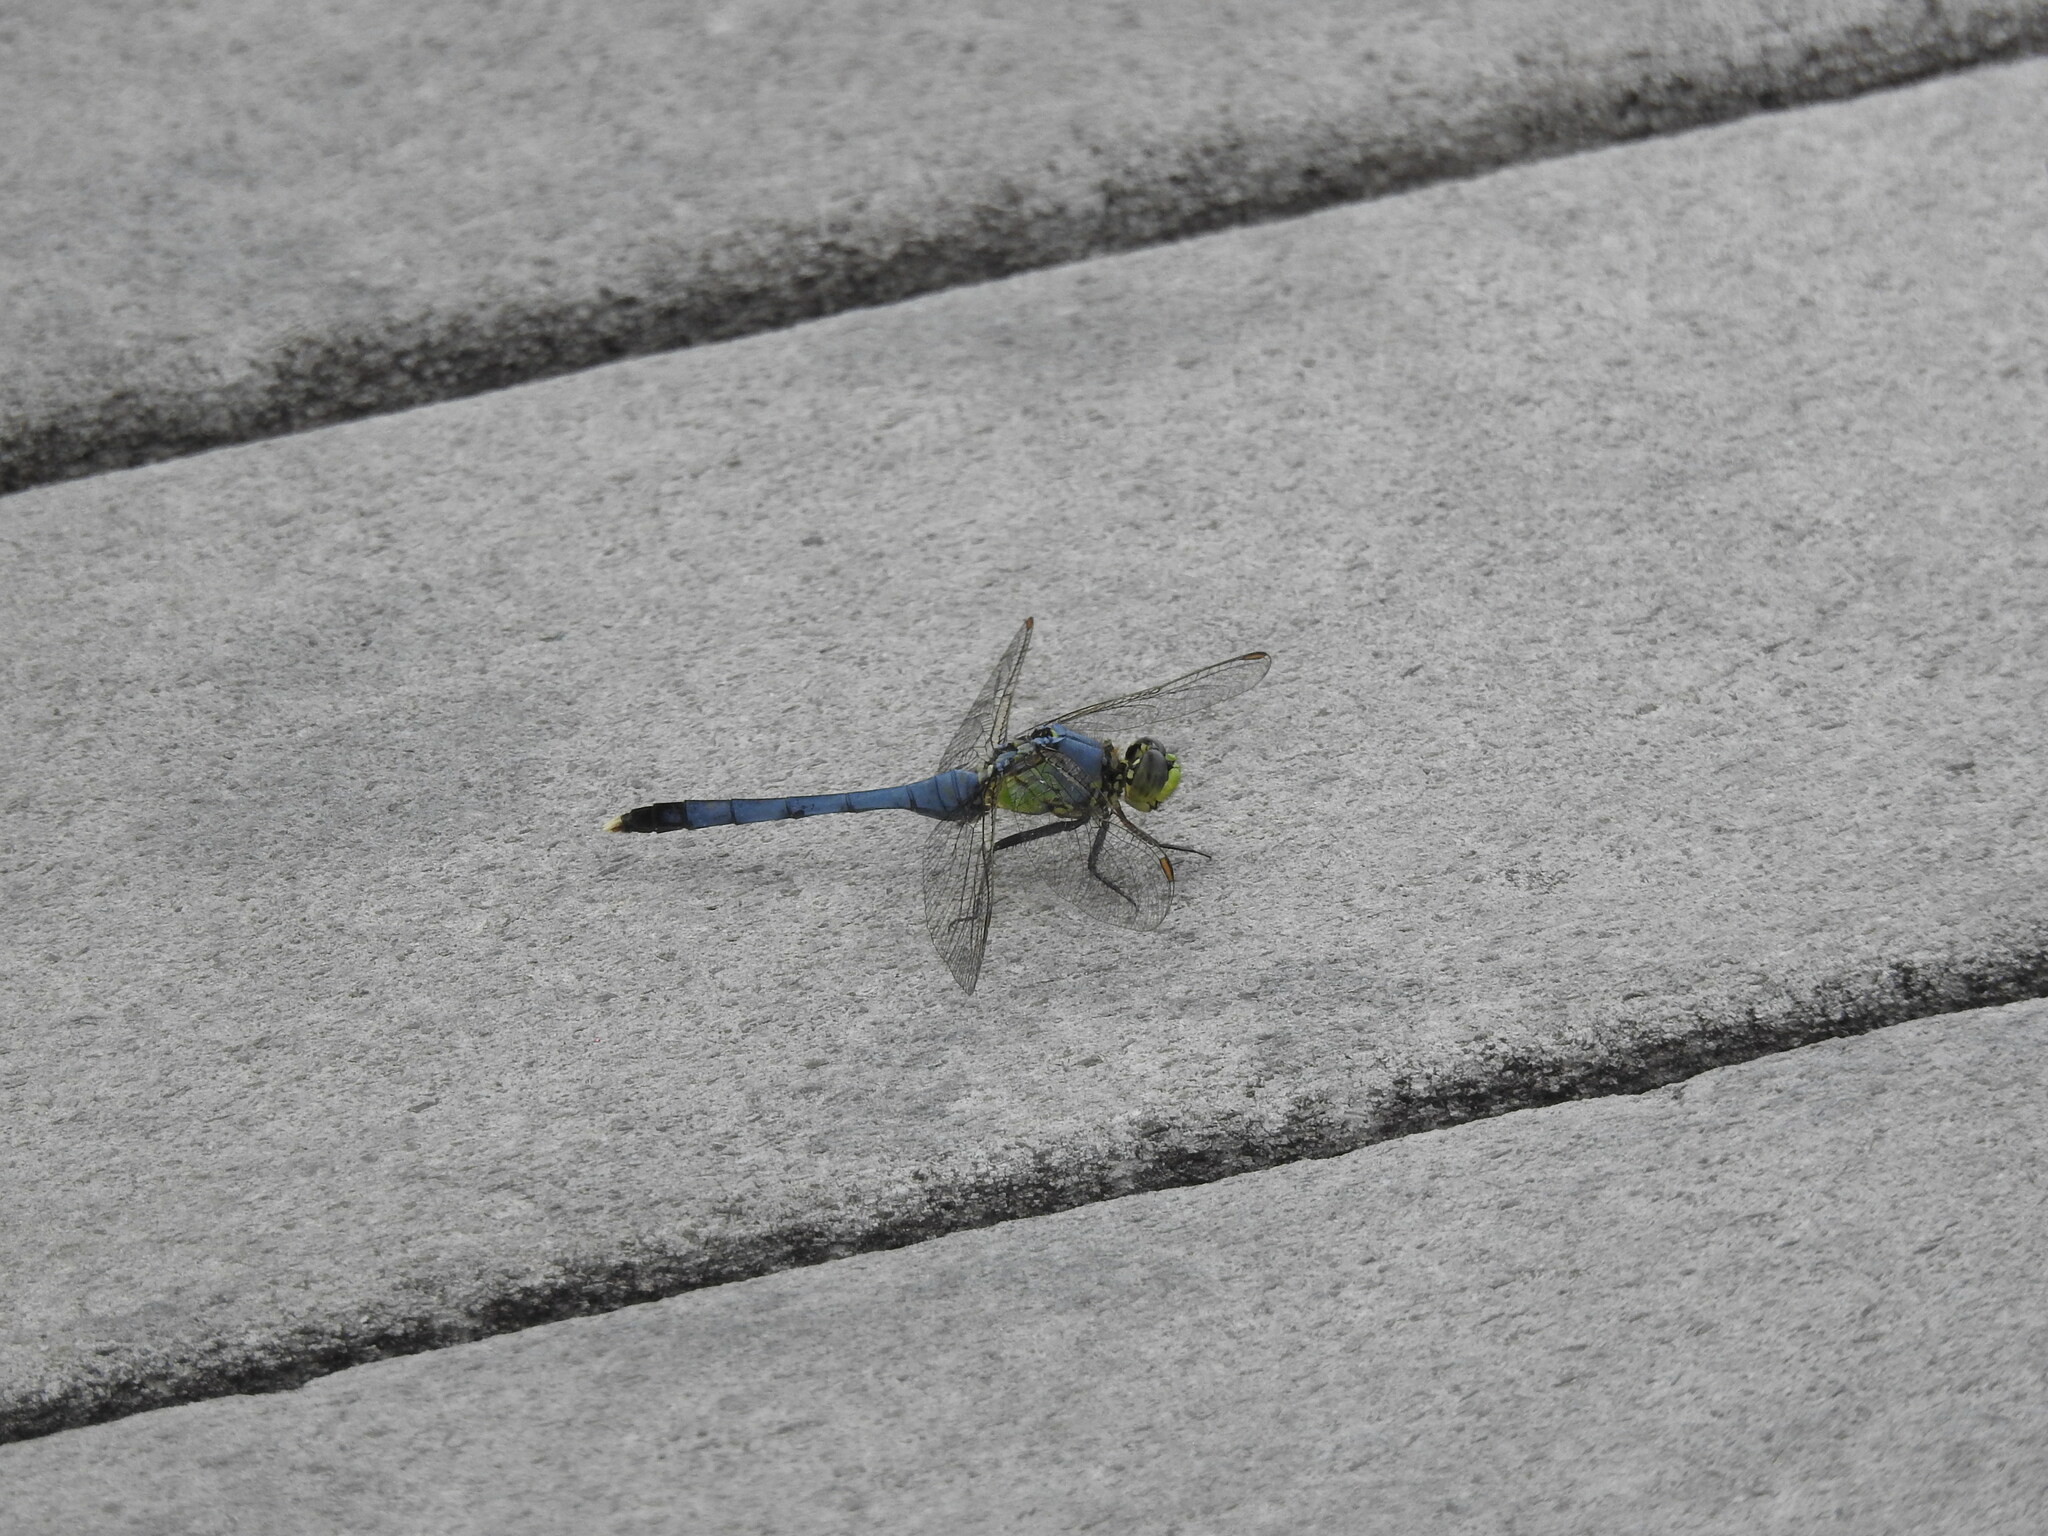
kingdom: Animalia
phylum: Arthropoda
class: Insecta
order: Odonata
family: Libellulidae
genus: Erythemis
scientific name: Erythemis simplicicollis
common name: Eastern pondhawk
